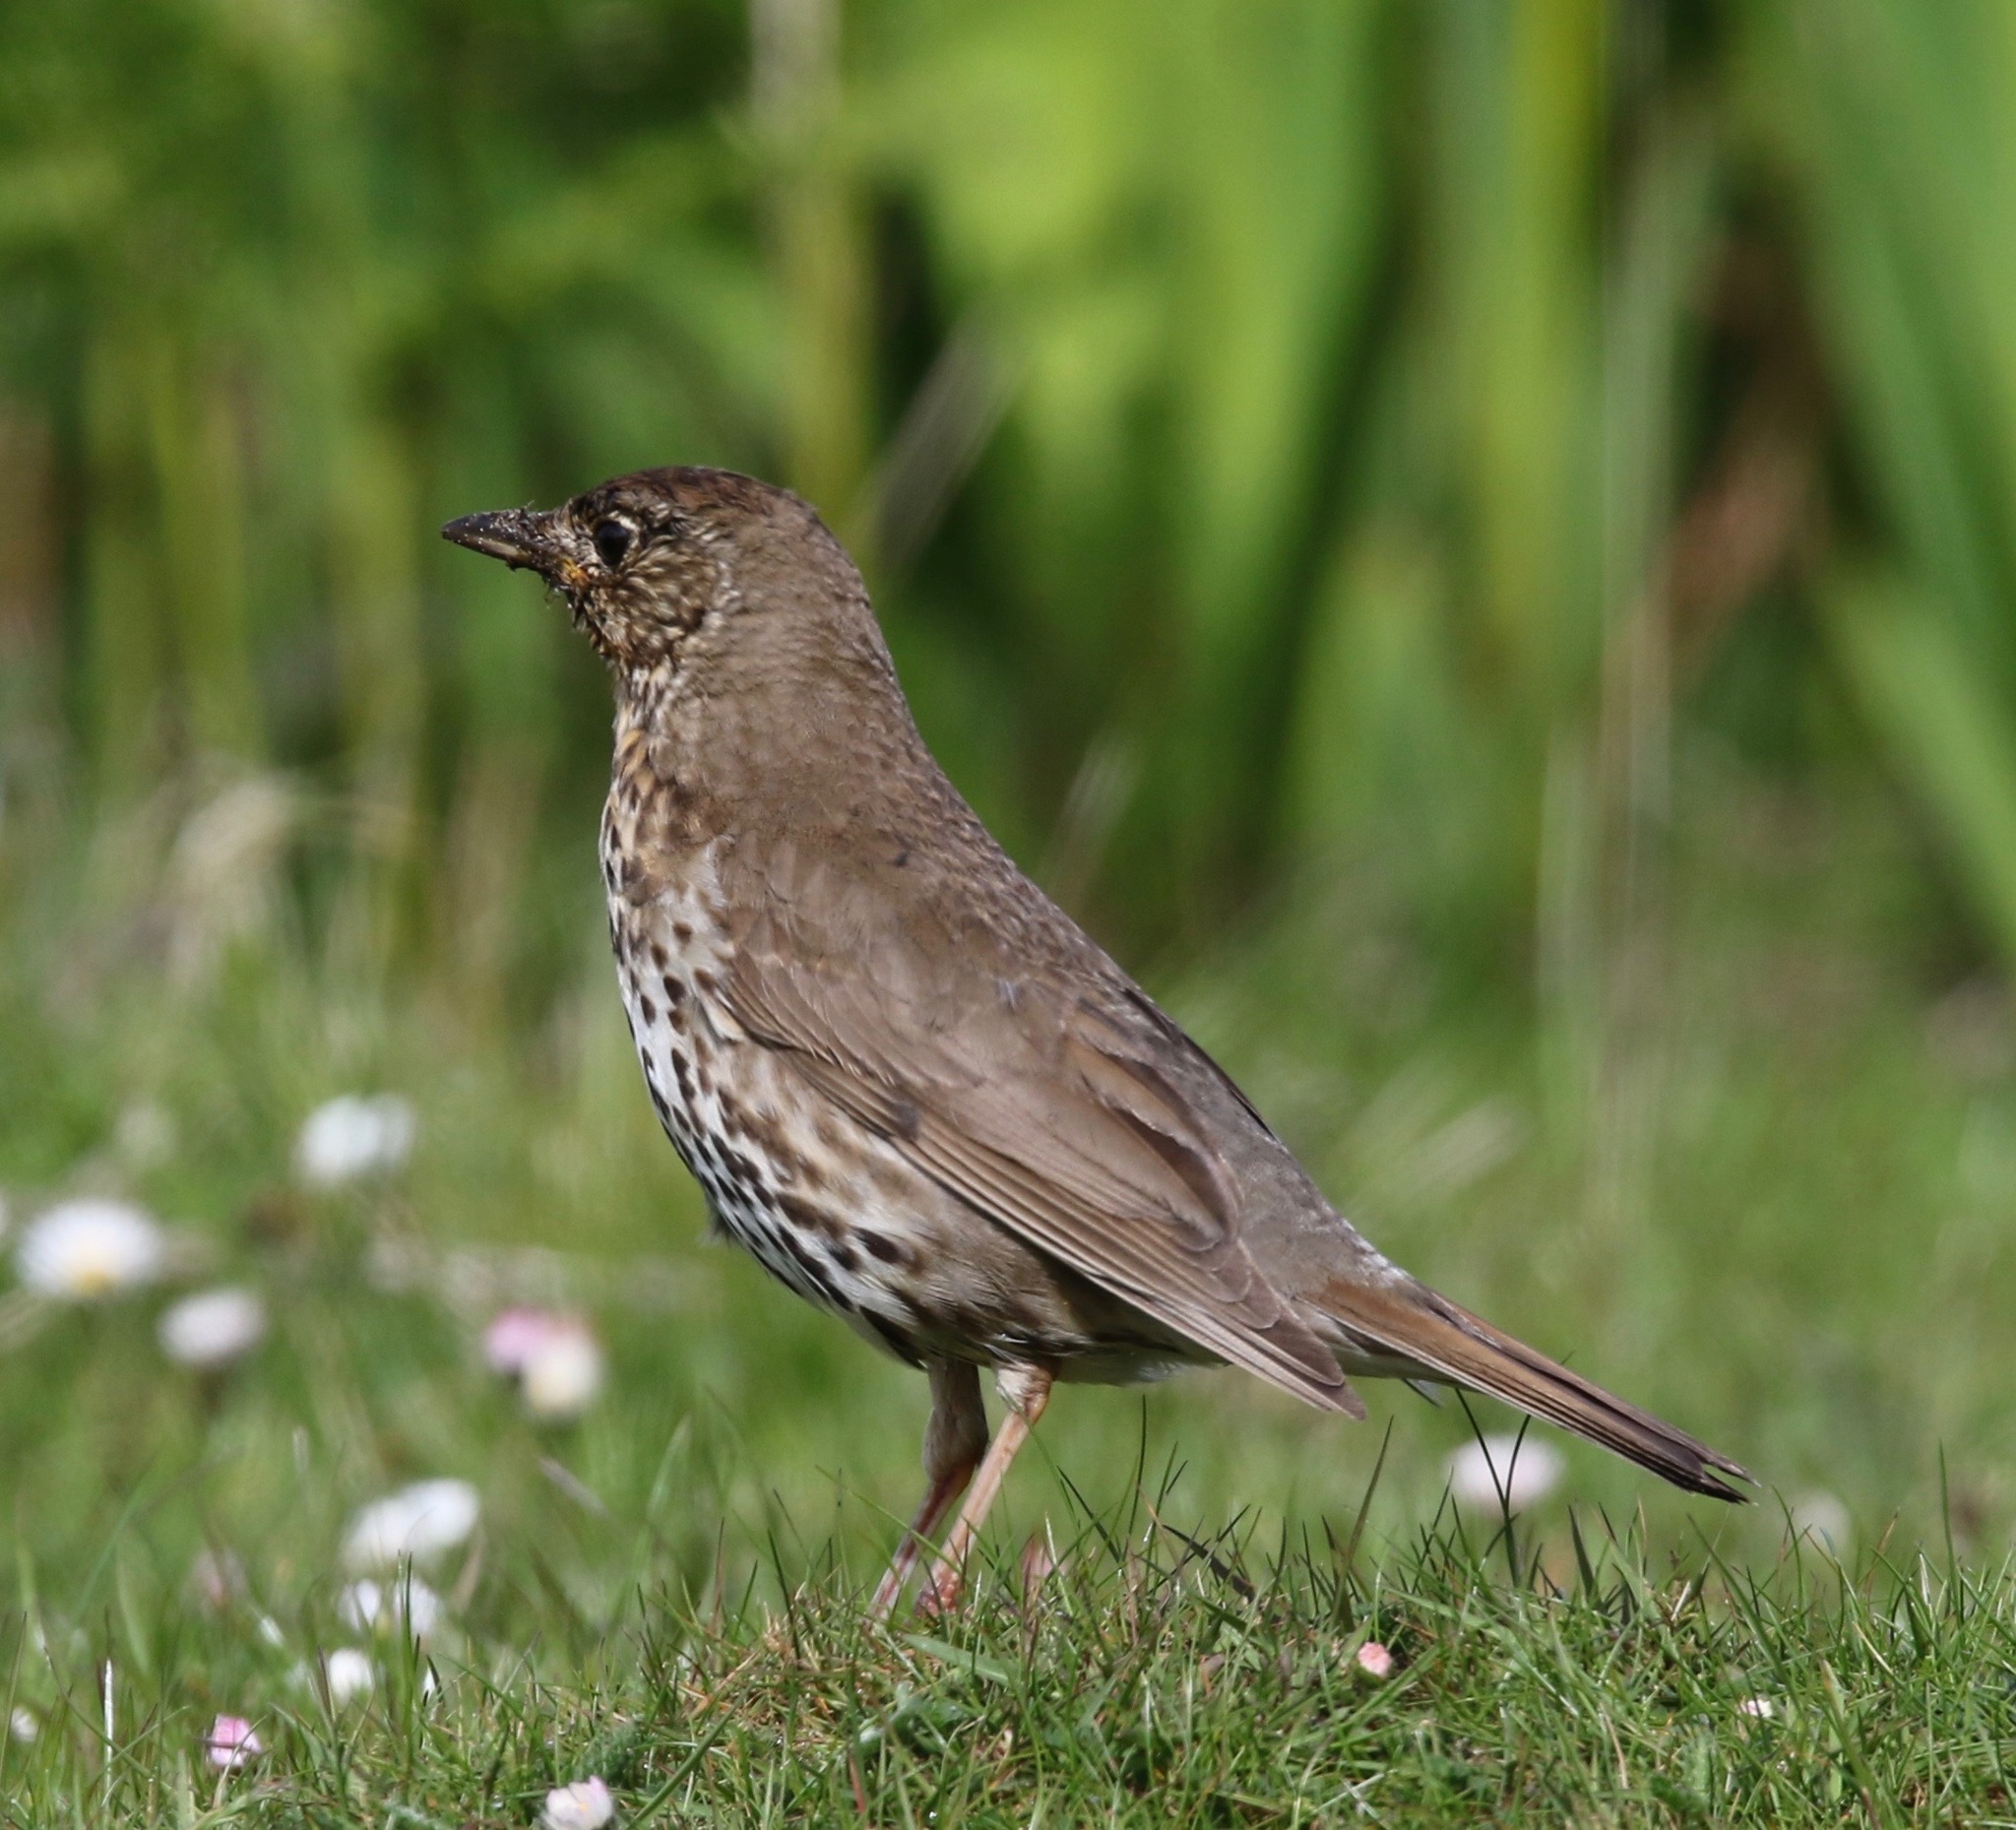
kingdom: Animalia
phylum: Chordata
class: Aves
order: Passeriformes
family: Turdidae
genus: Turdus
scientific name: Turdus philomelos
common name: Song thrush
